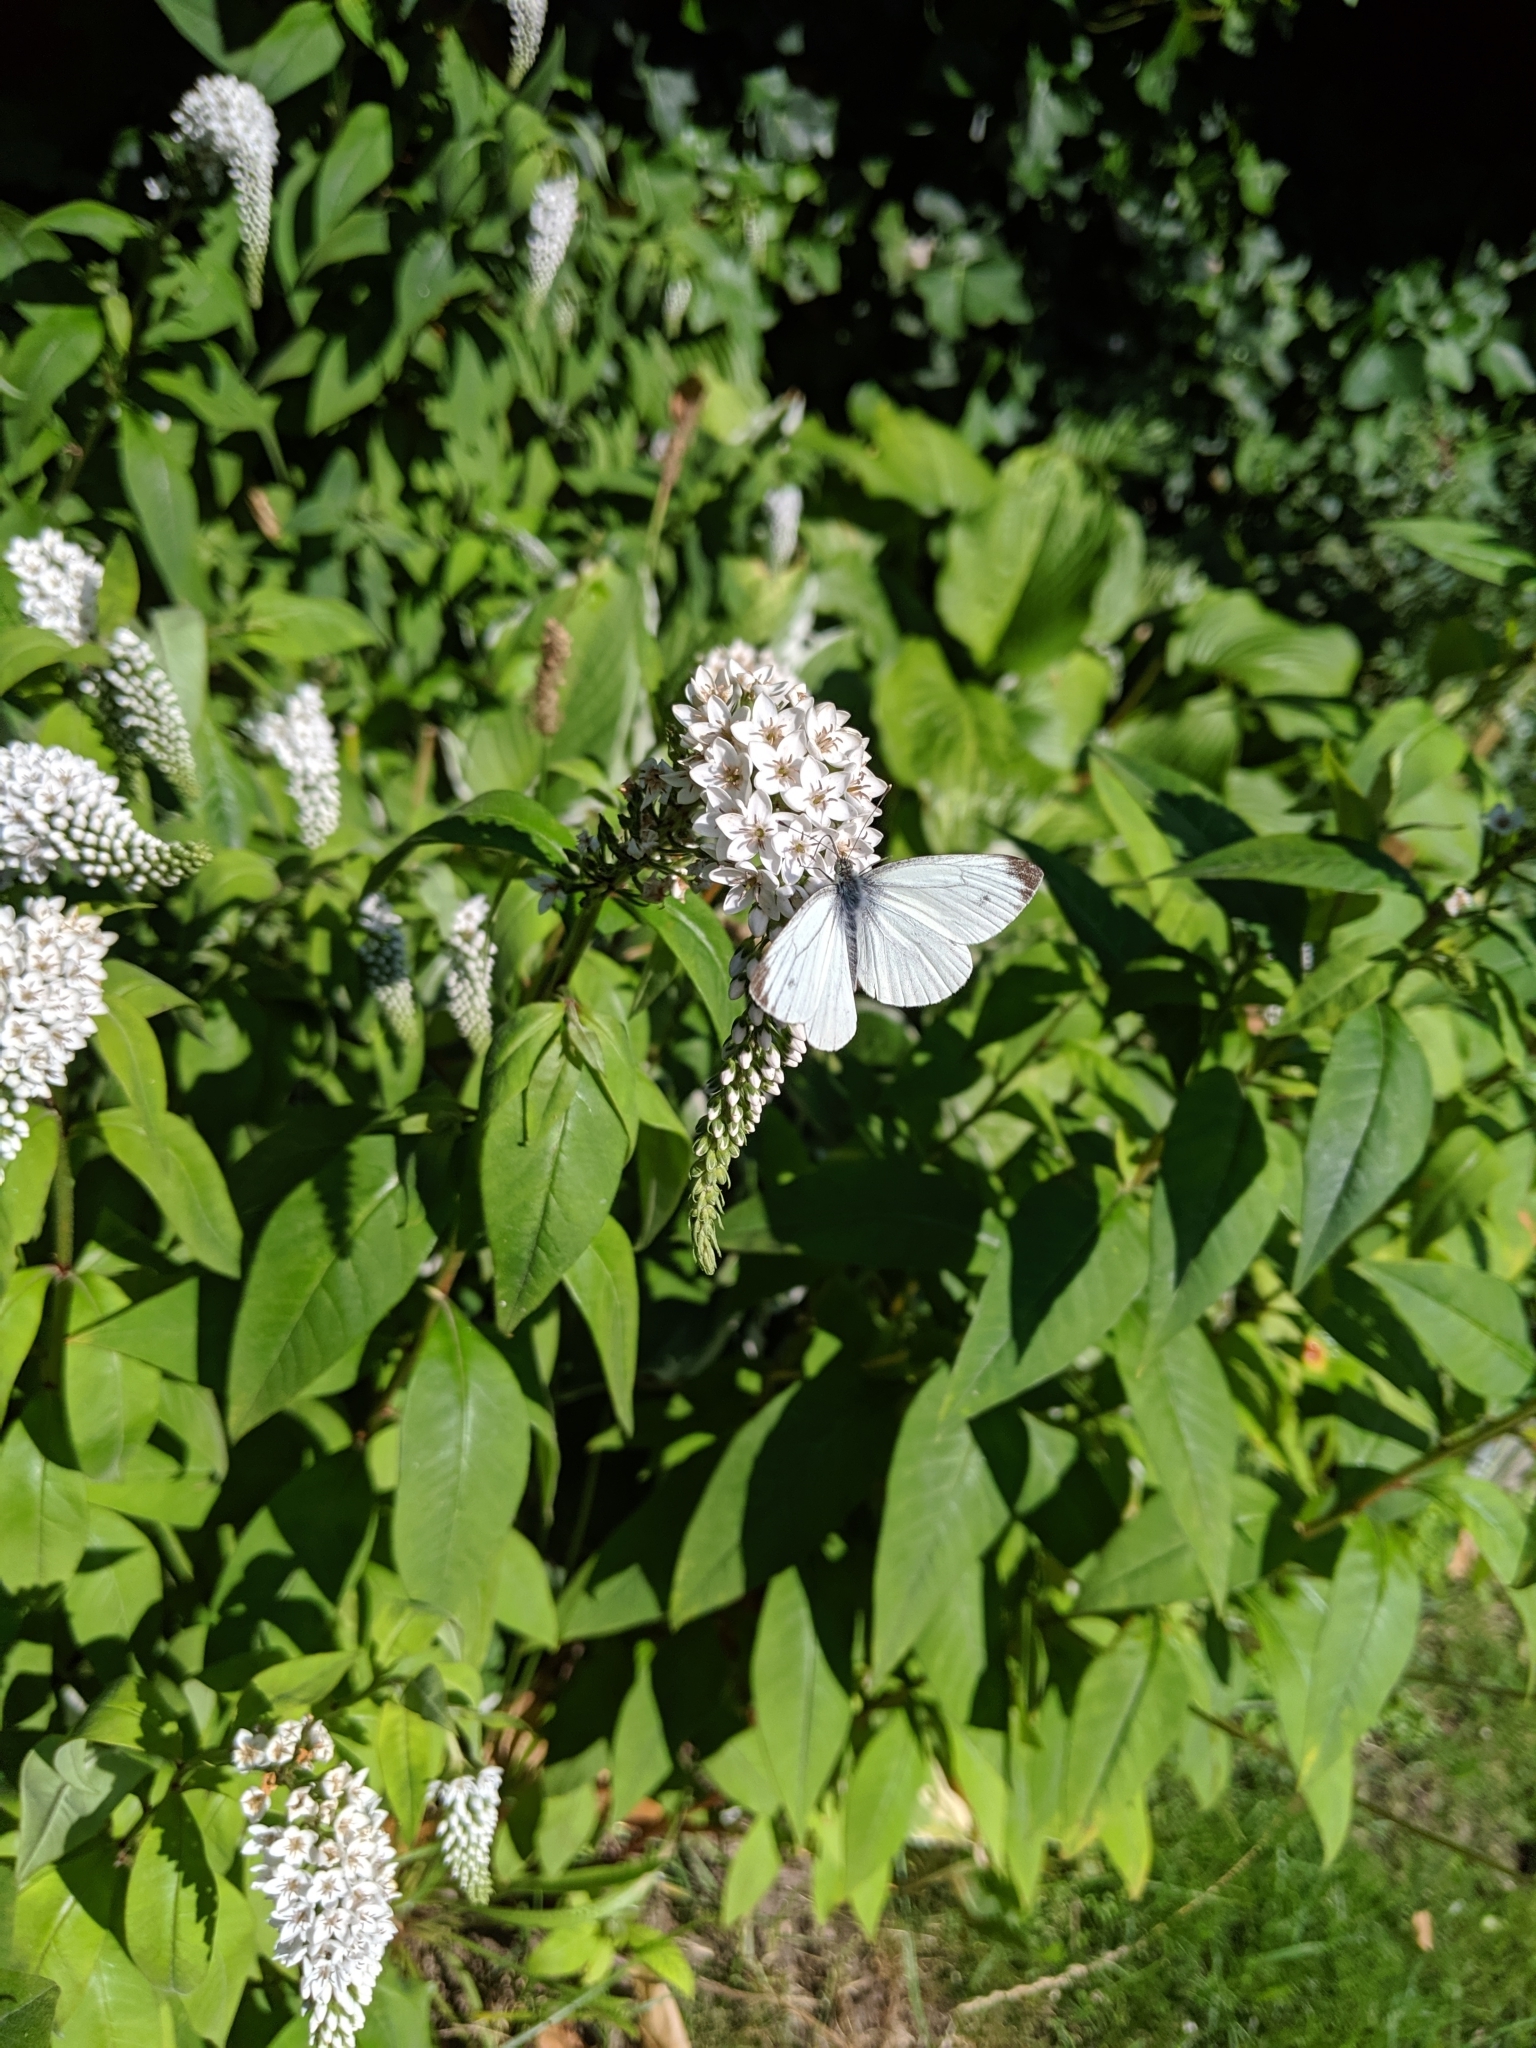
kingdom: Animalia
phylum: Arthropoda
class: Insecta
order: Lepidoptera
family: Pieridae
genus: Pieris
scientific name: Pieris napi
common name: Green-veined white
